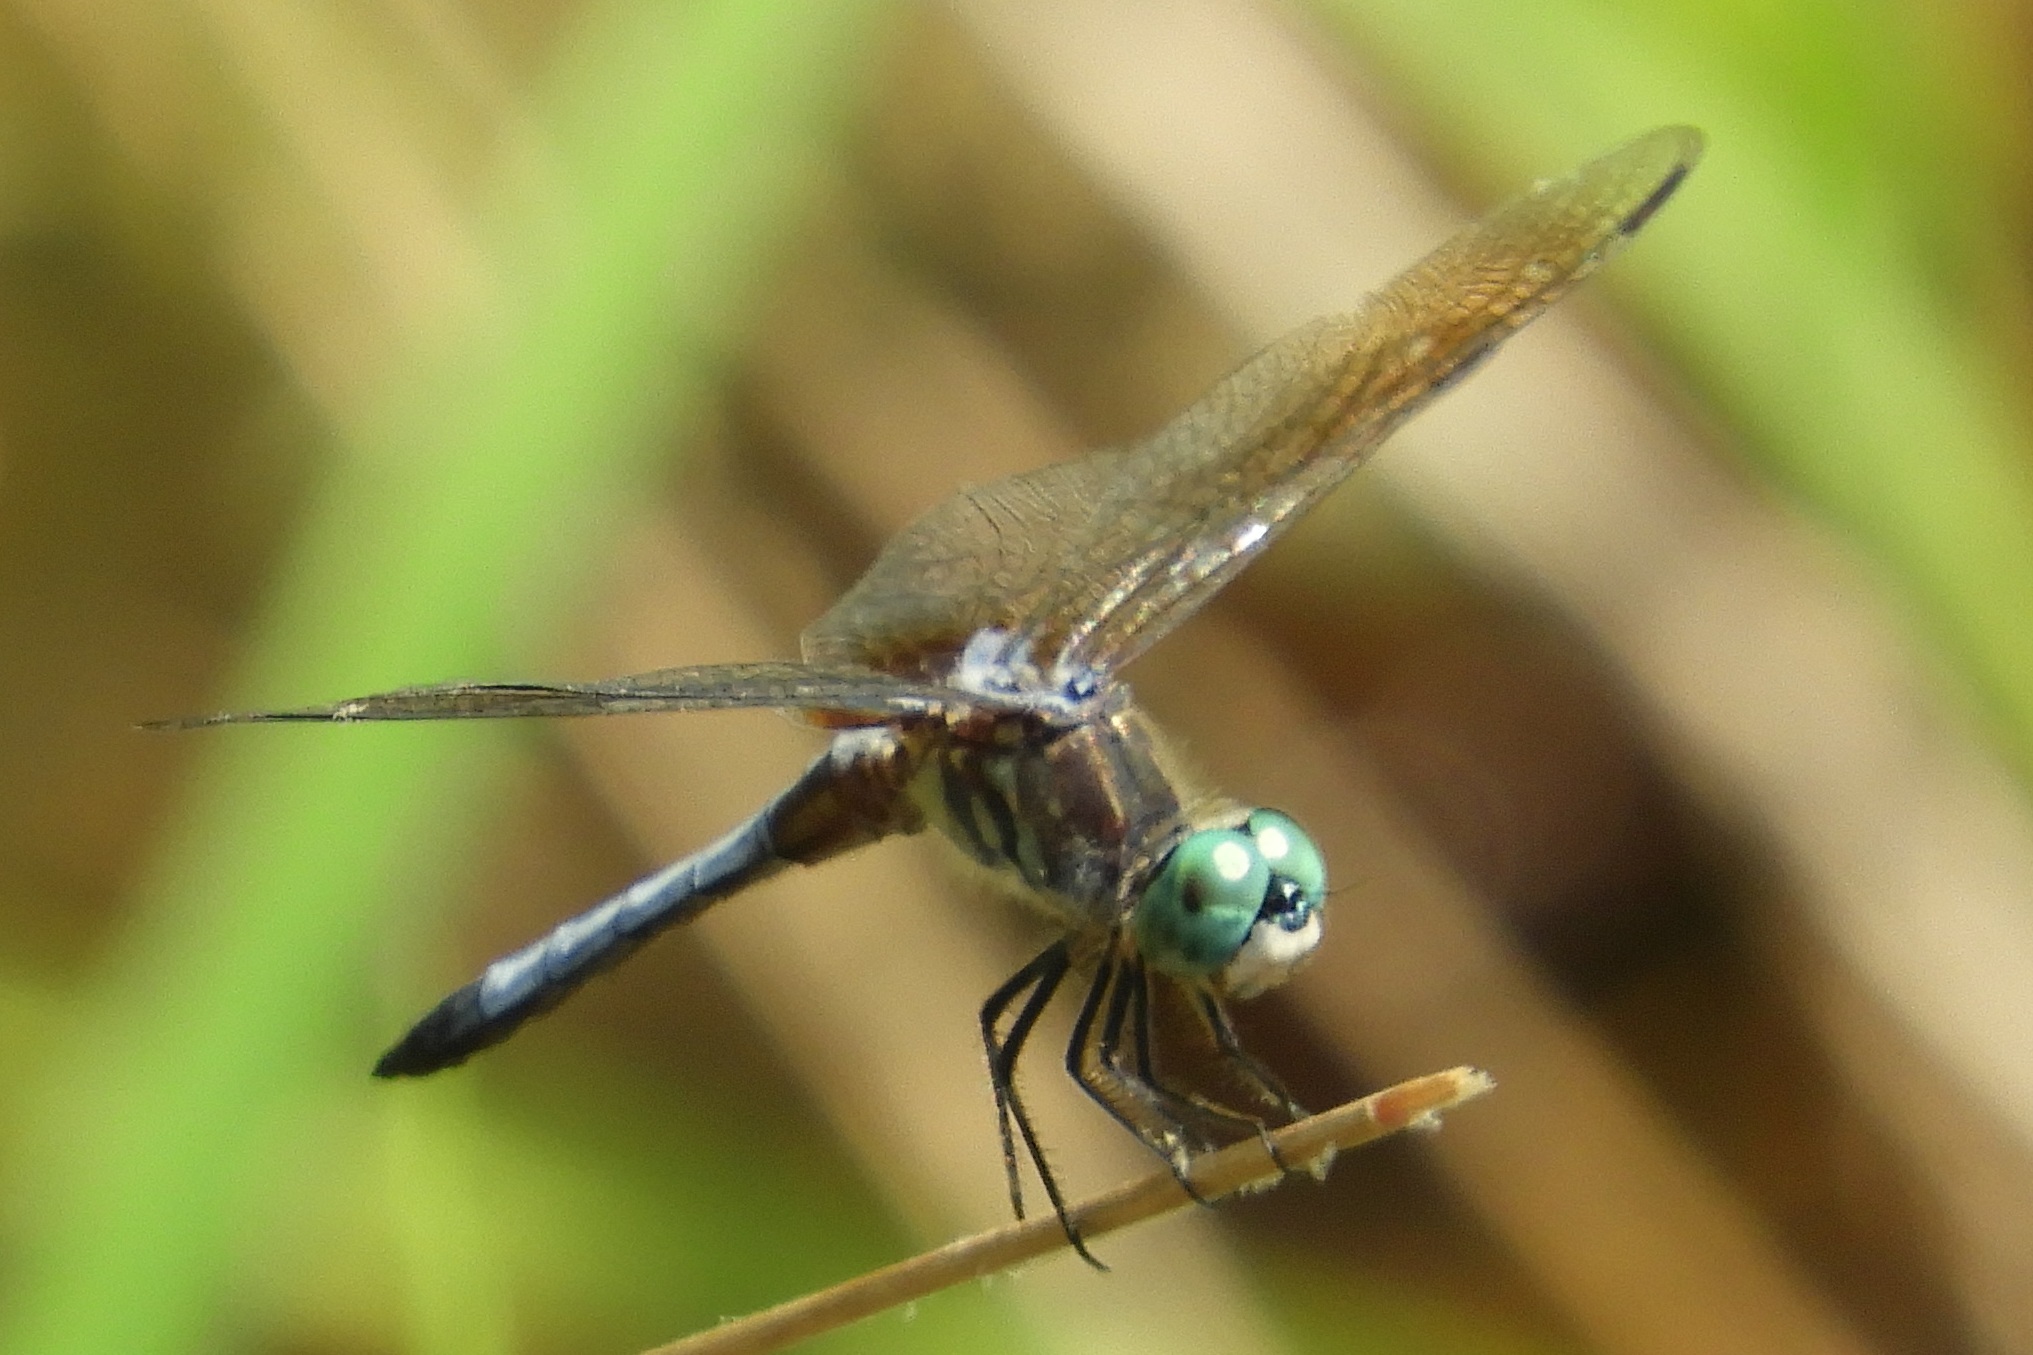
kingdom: Animalia
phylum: Arthropoda
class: Insecta
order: Odonata
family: Libellulidae
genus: Pachydiplax
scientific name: Pachydiplax longipennis
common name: Blue dasher
